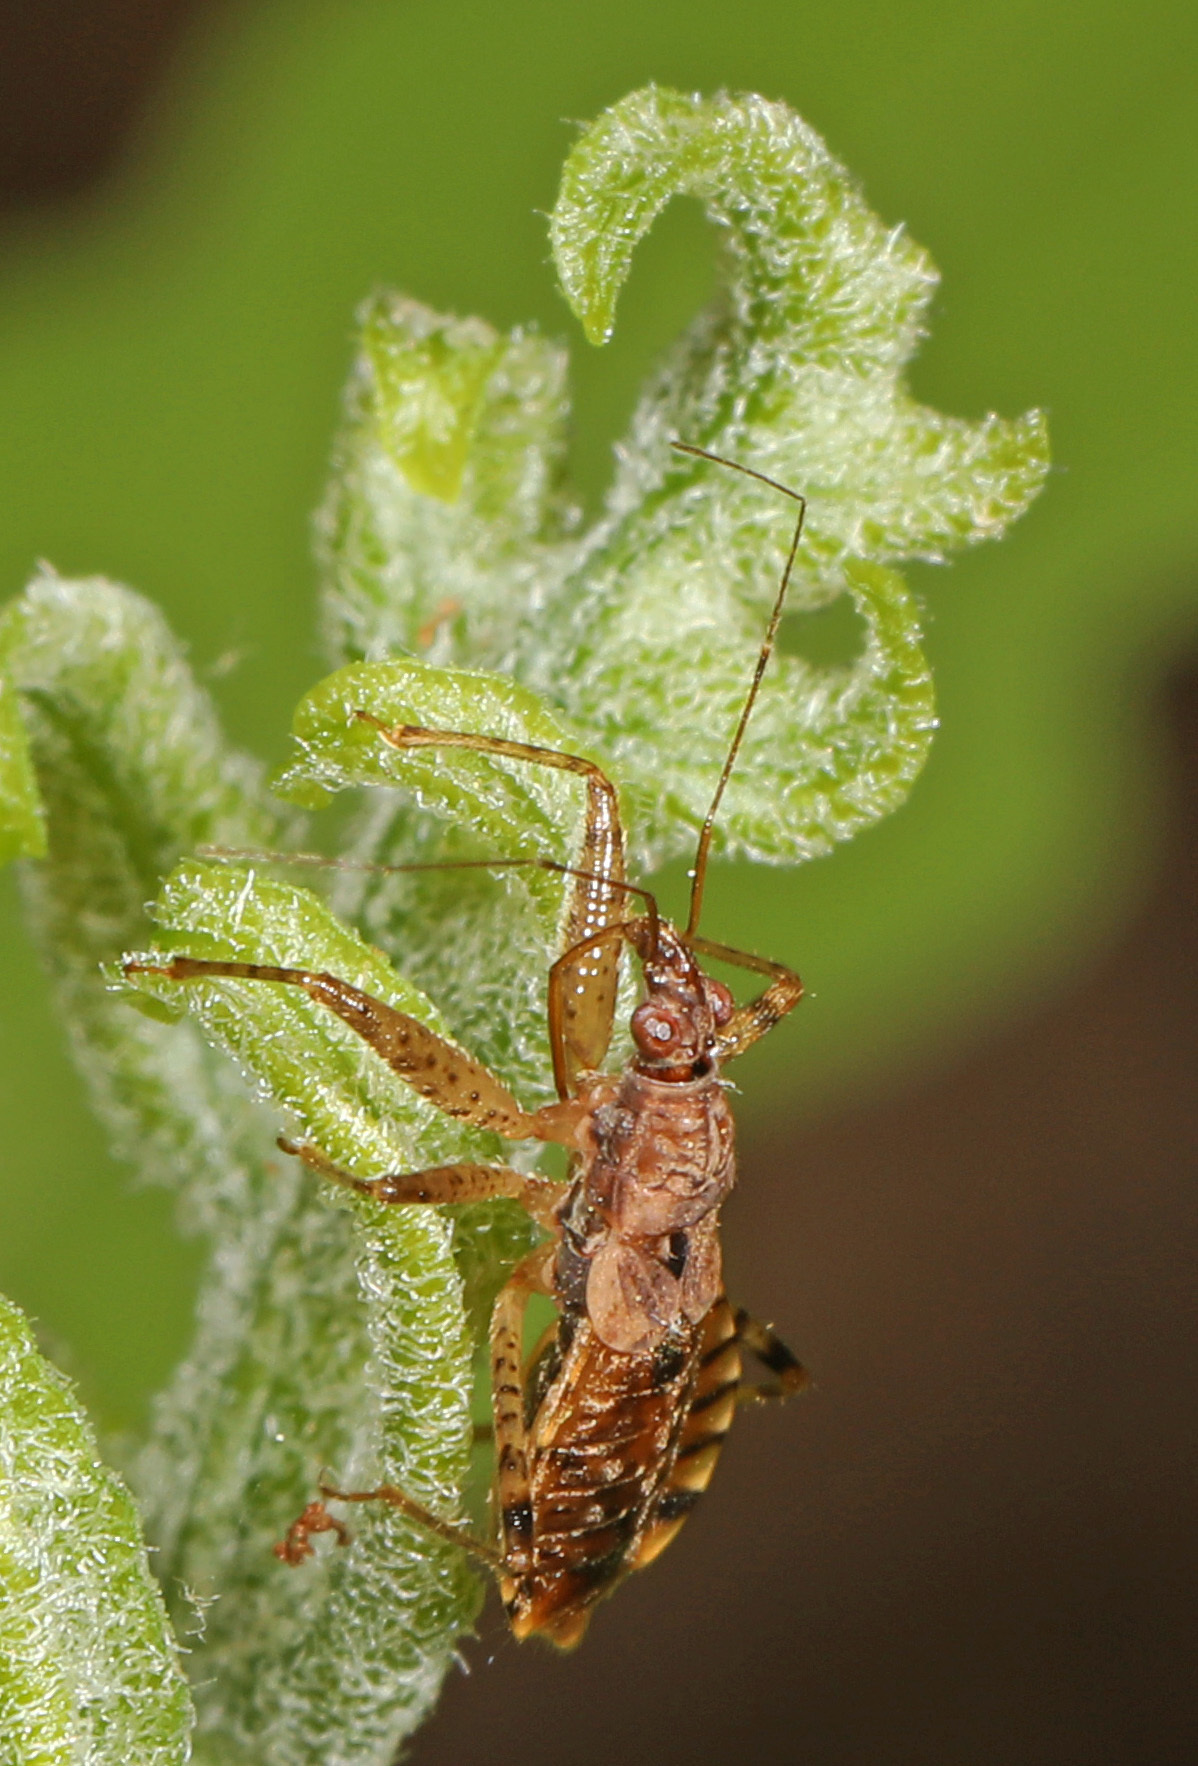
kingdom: Animalia
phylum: Arthropoda
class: Insecta
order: Hemiptera
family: Nabidae
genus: Hoplistoscelis
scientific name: Hoplistoscelis pallescens
